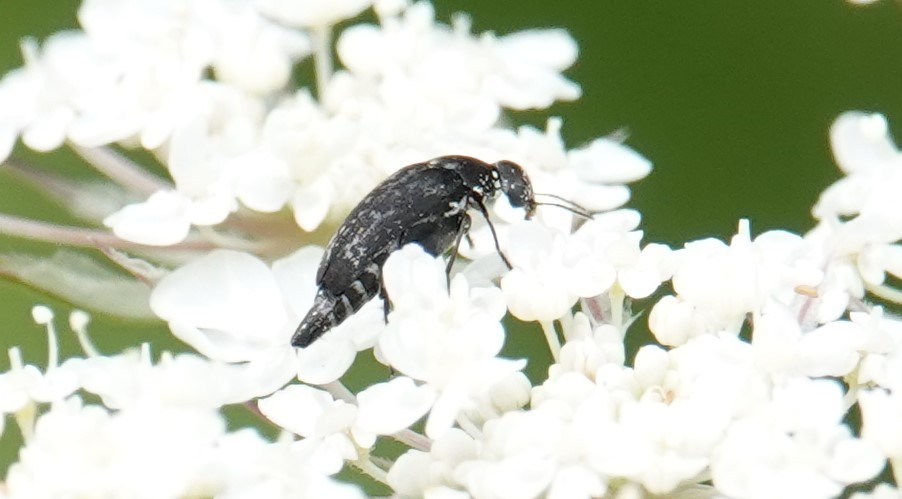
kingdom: Animalia
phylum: Arthropoda
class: Insecta
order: Coleoptera
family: Mordellidae
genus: Mordella
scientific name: Mordella marginata
